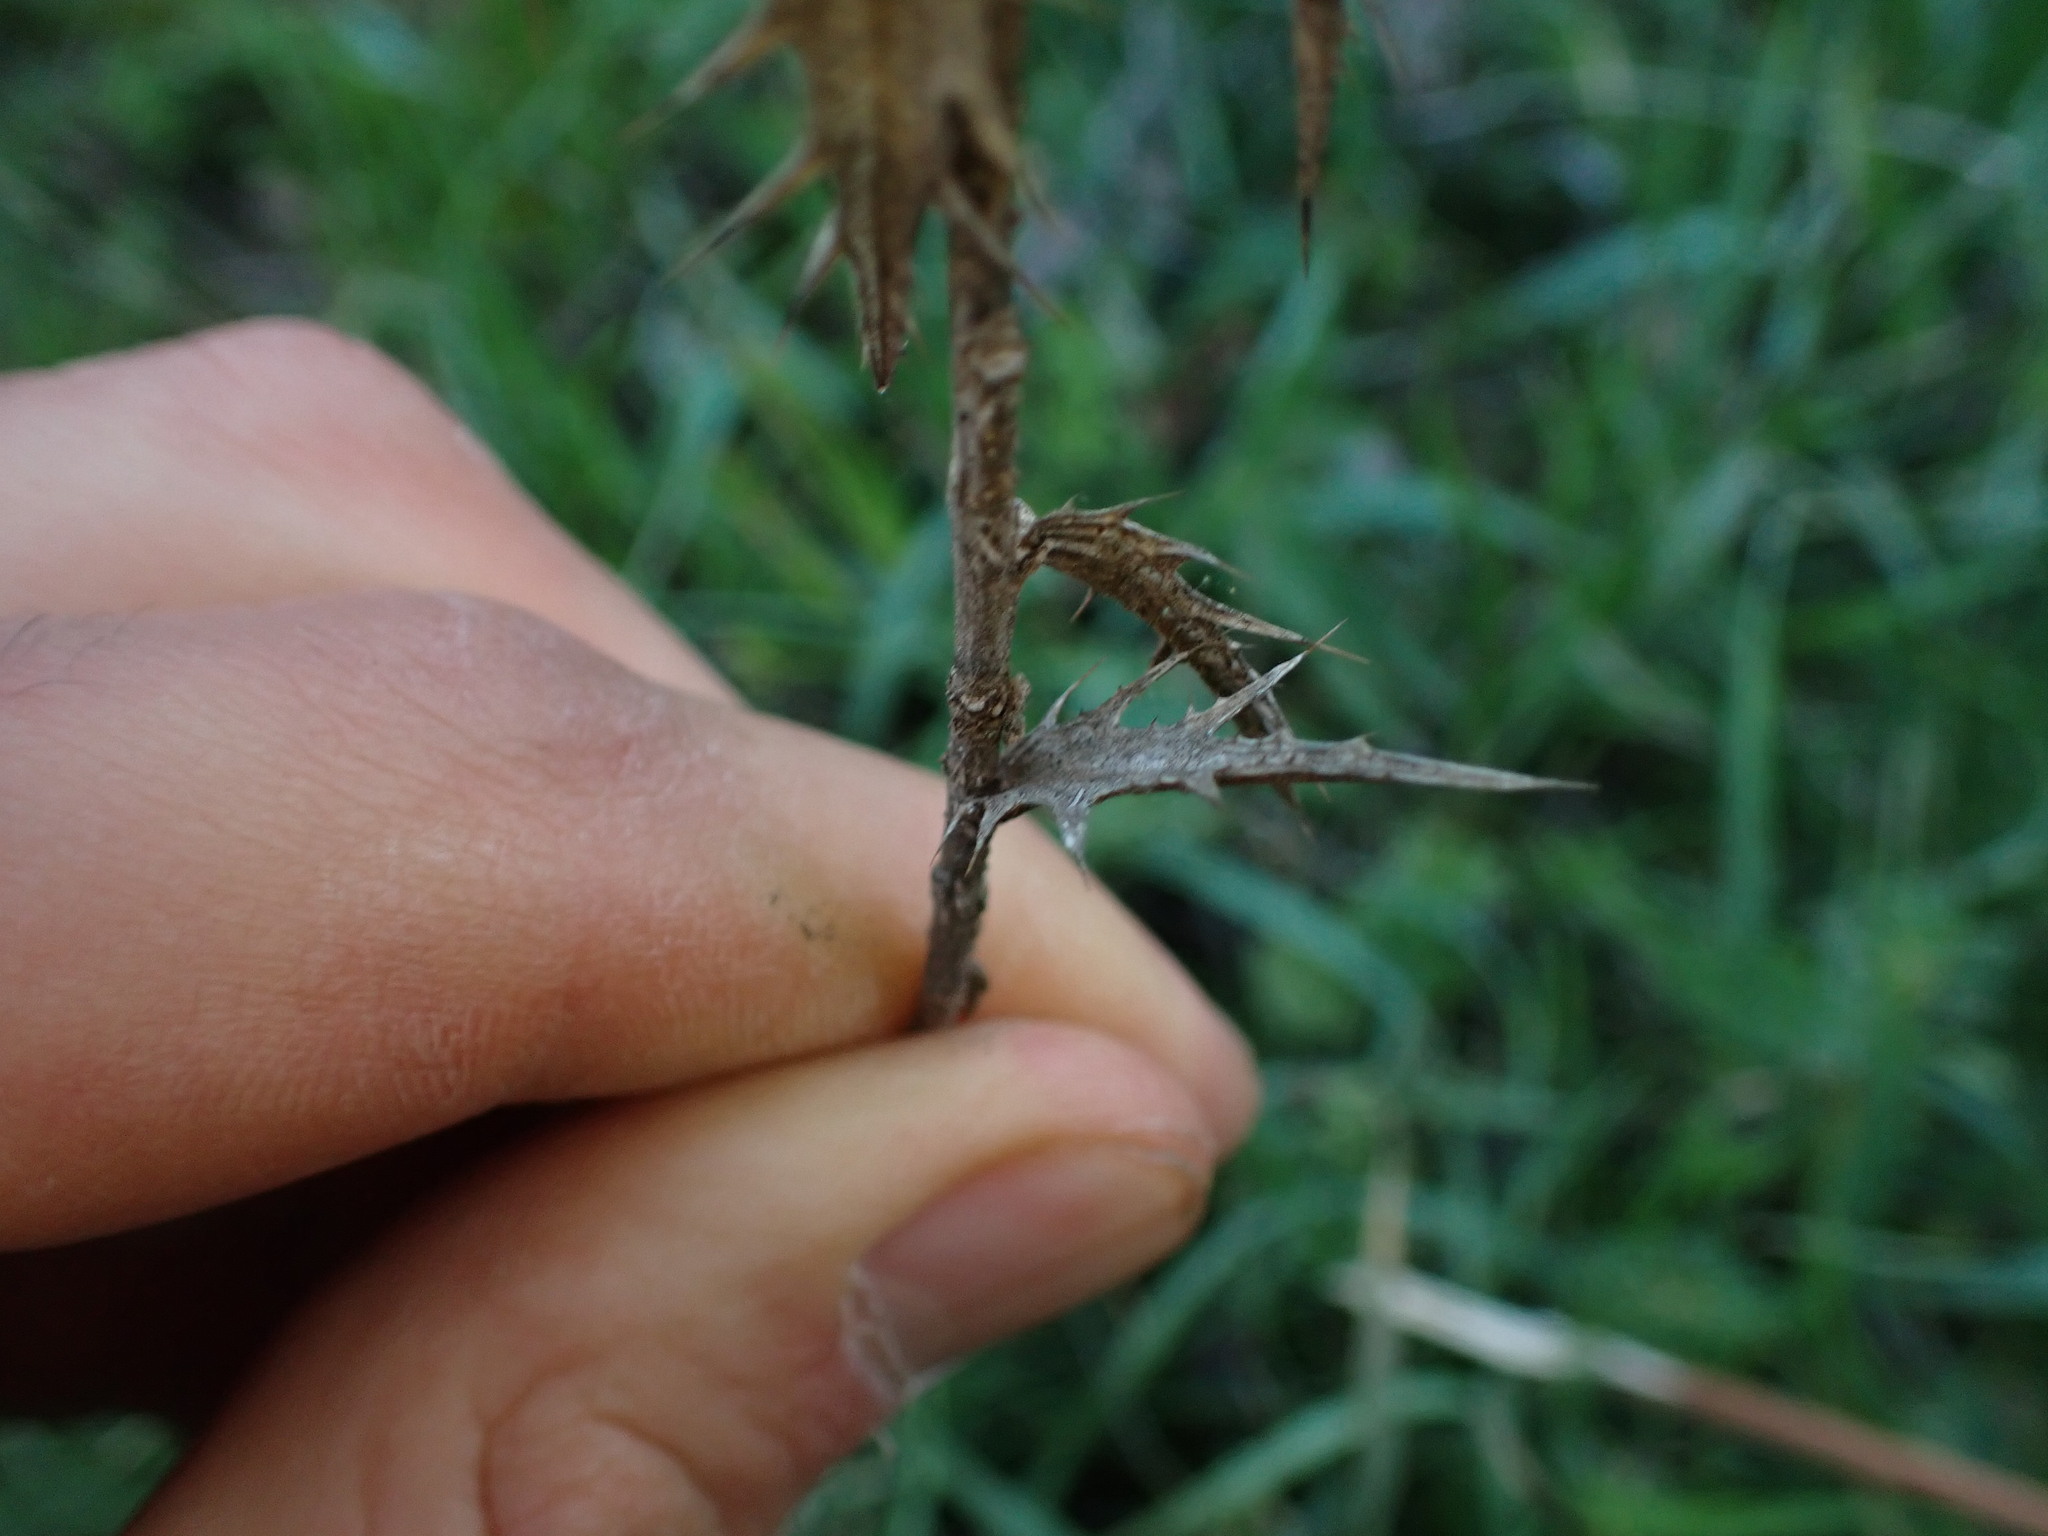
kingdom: Plantae
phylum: Tracheophyta
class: Magnoliopsida
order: Asterales
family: Asteraceae
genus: Carthamus
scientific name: Carthamus lanatus
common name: Downy safflower
